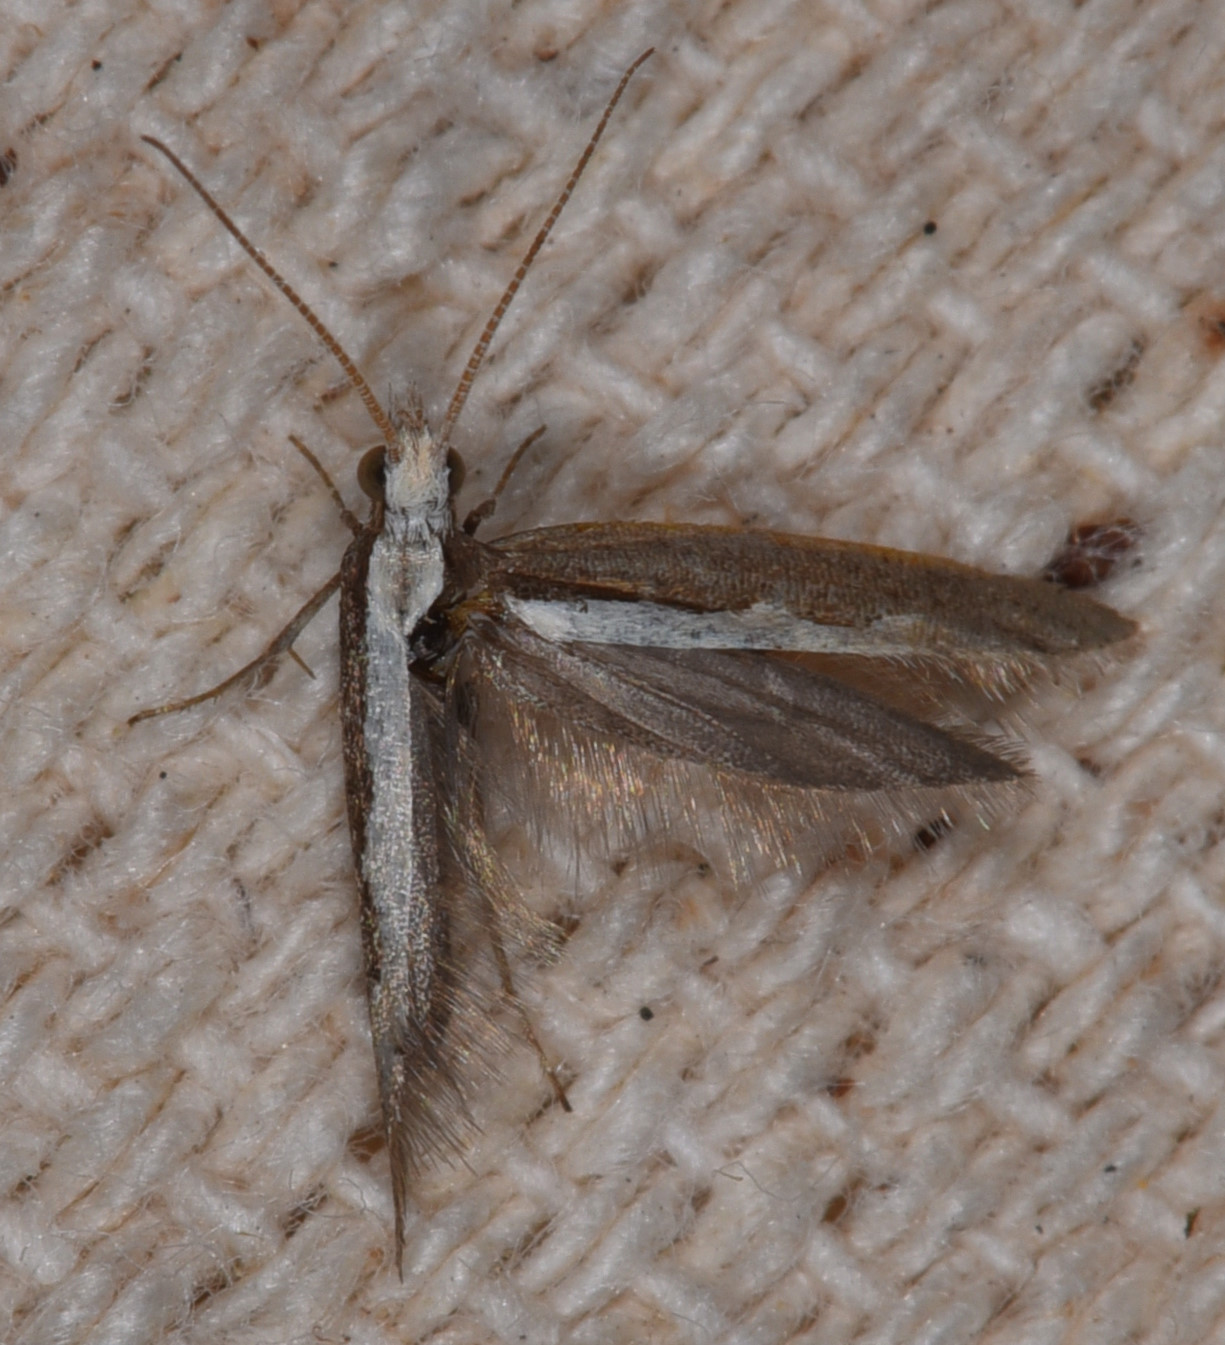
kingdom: Animalia
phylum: Arthropoda
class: Insecta
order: Lepidoptera
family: Plutellidae
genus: Plutella
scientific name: Plutella xylostella
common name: Diamond-back moth
